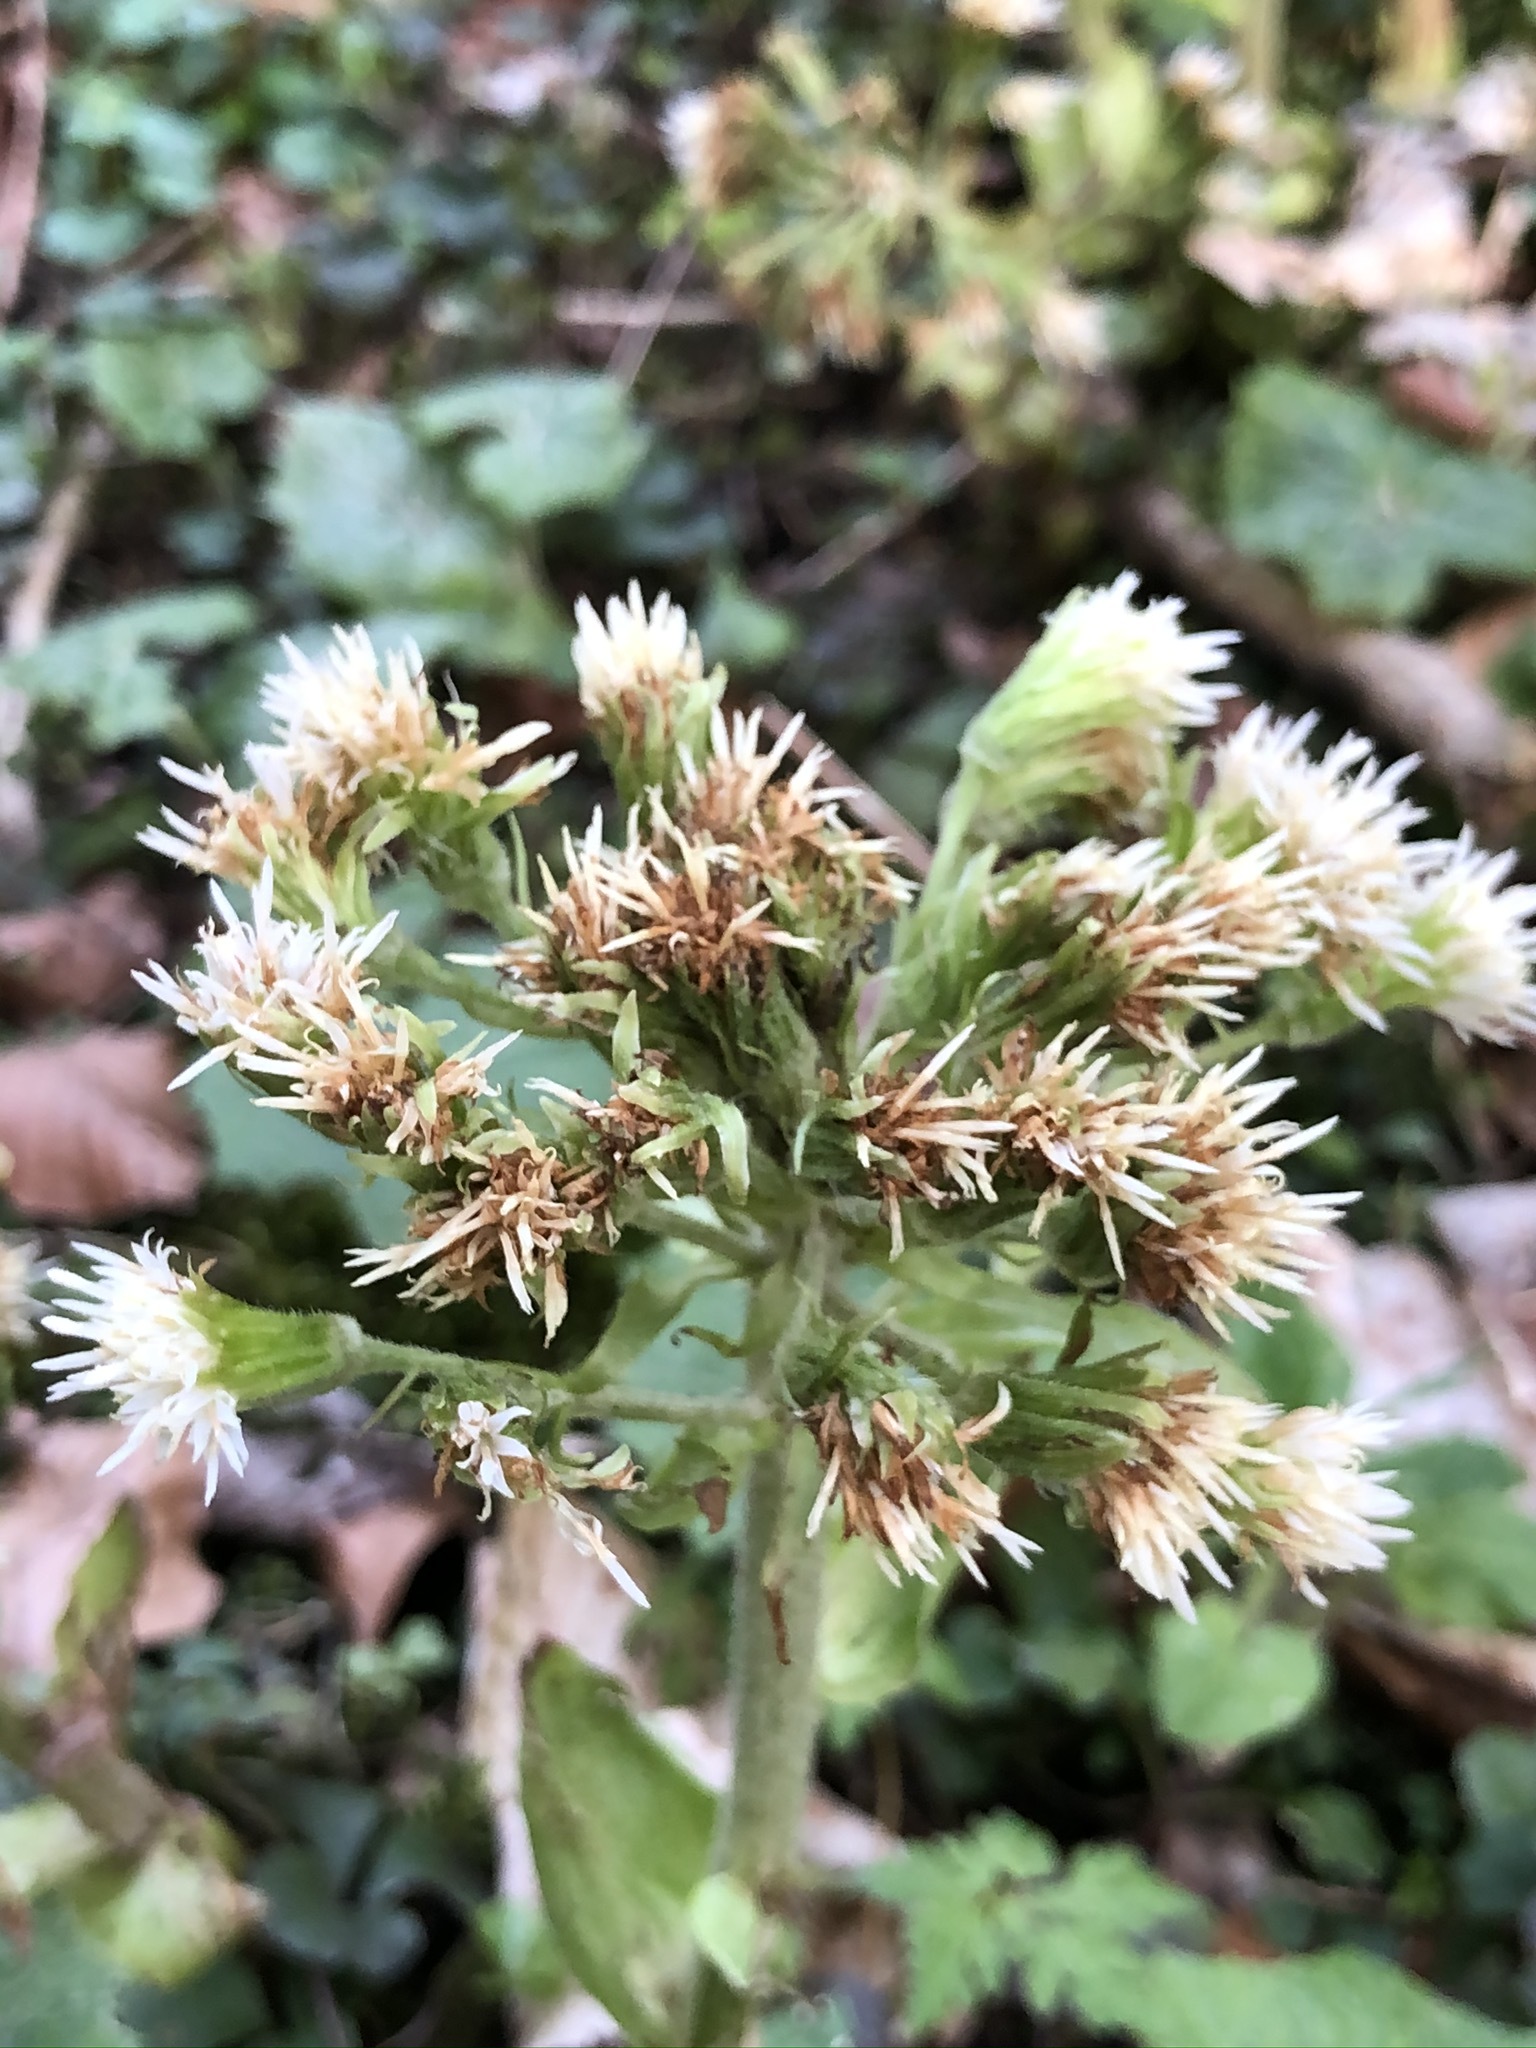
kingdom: Plantae
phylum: Tracheophyta
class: Magnoliopsida
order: Asterales
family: Asteraceae
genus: Petasites
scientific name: Petasites albus
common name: White butterbur
